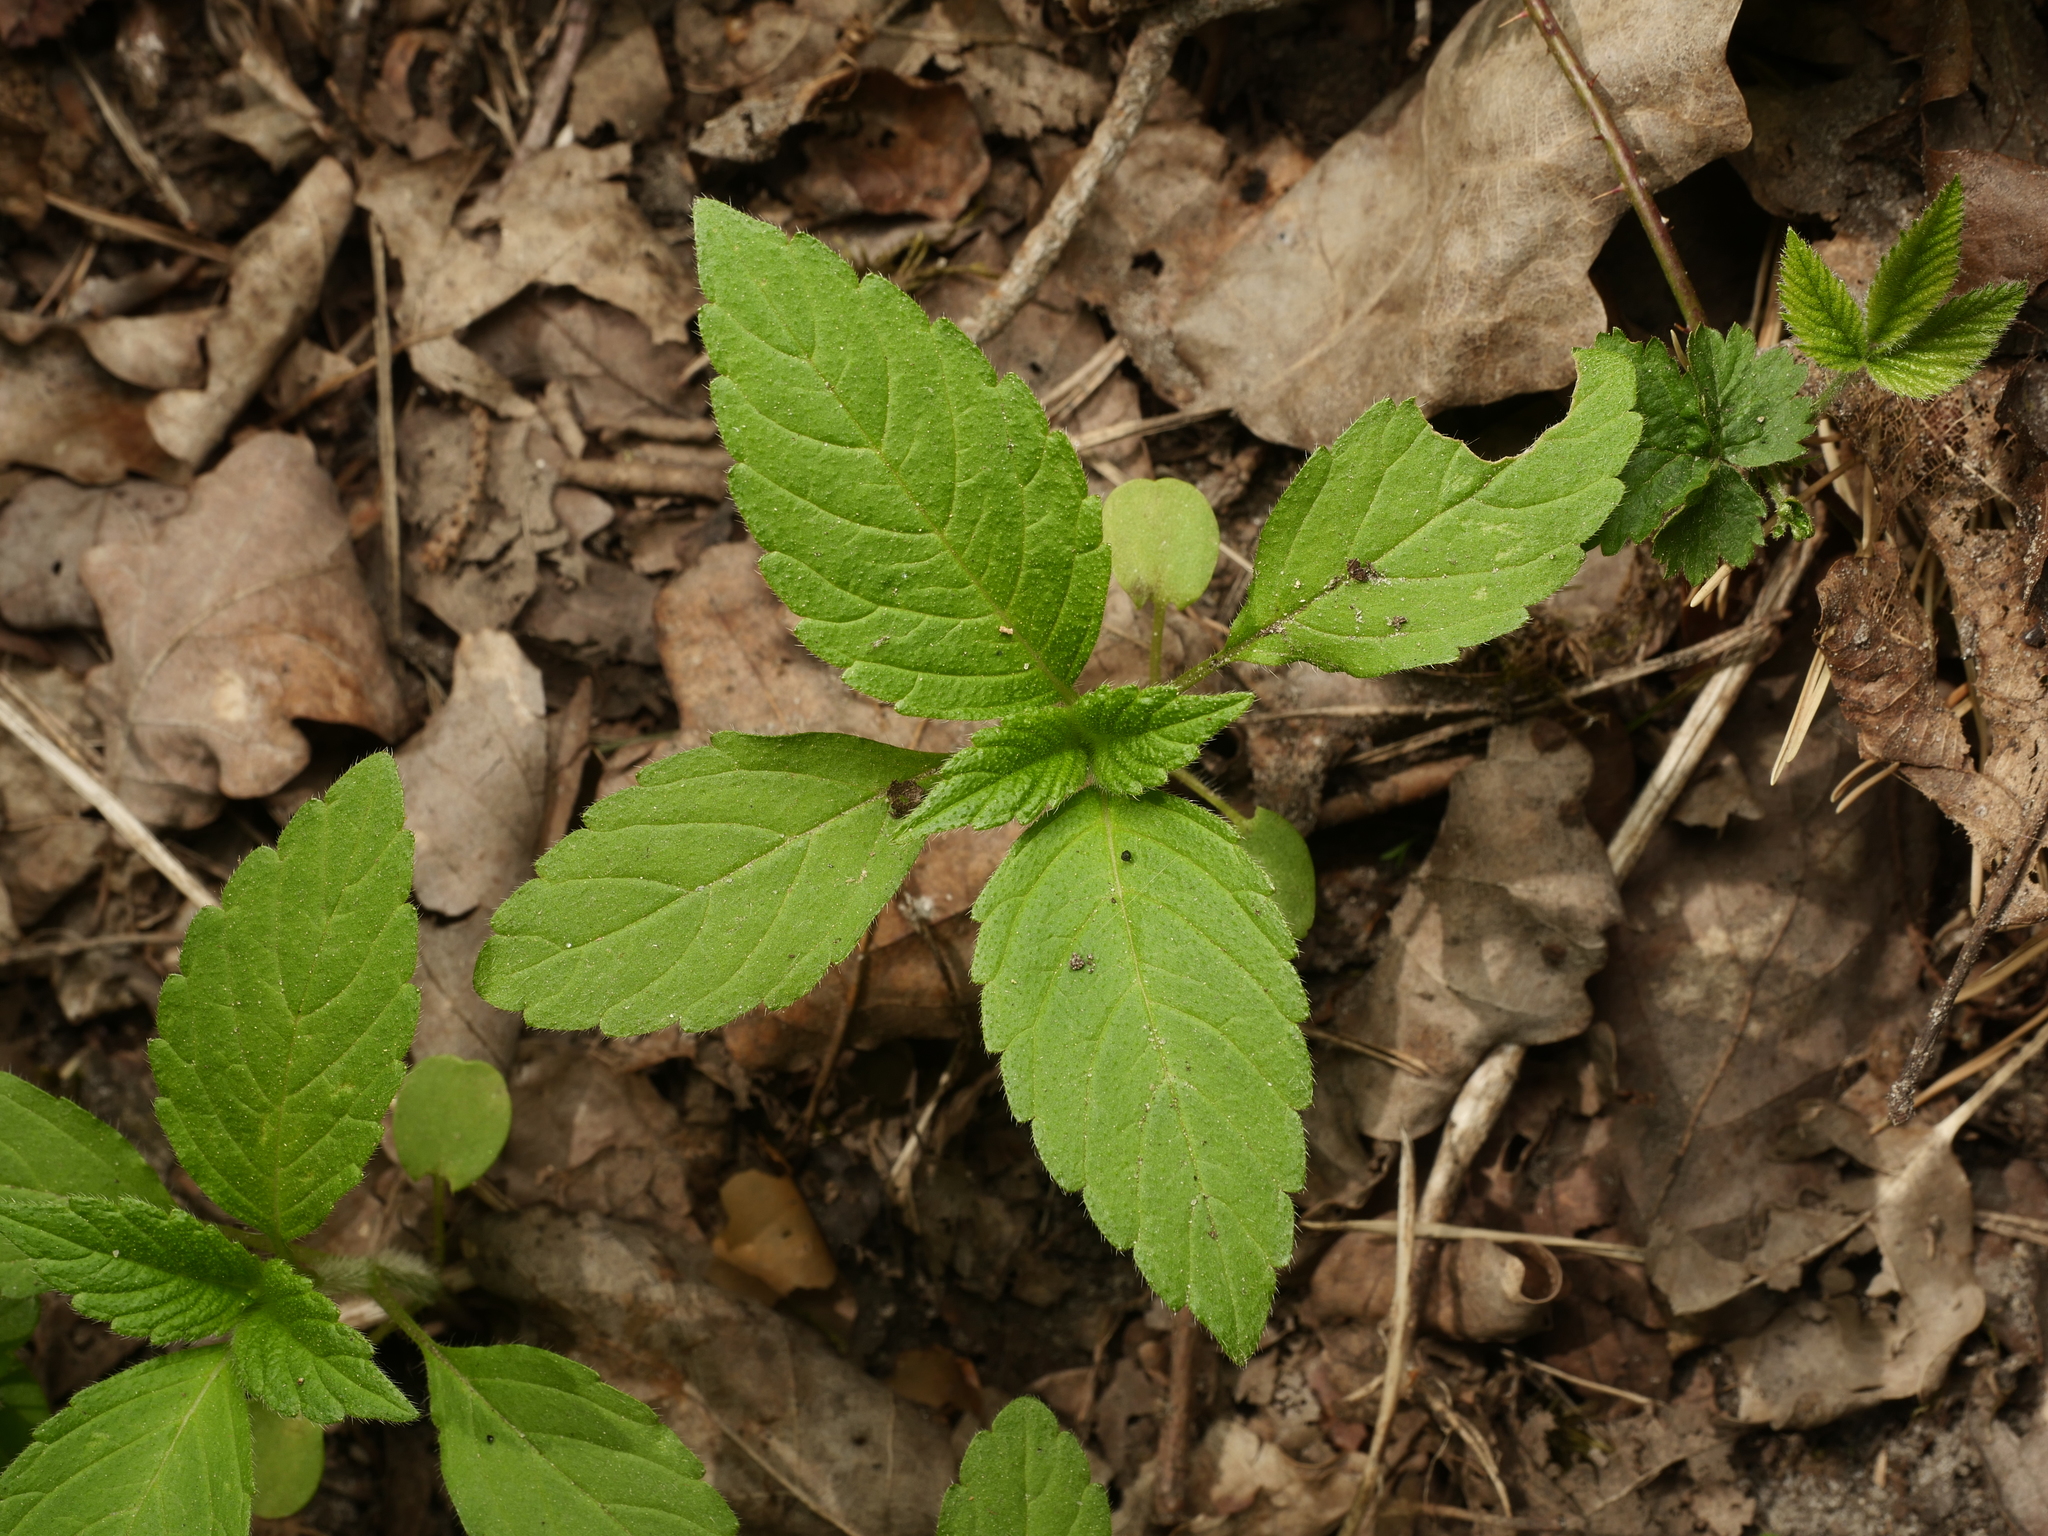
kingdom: Plantae
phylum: Tracheophyta
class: Magnoliopsida
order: Lamiales
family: Lamiaceae
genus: Galeopsis
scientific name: Galeopsis tetrahit
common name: Common hemp-nettle
